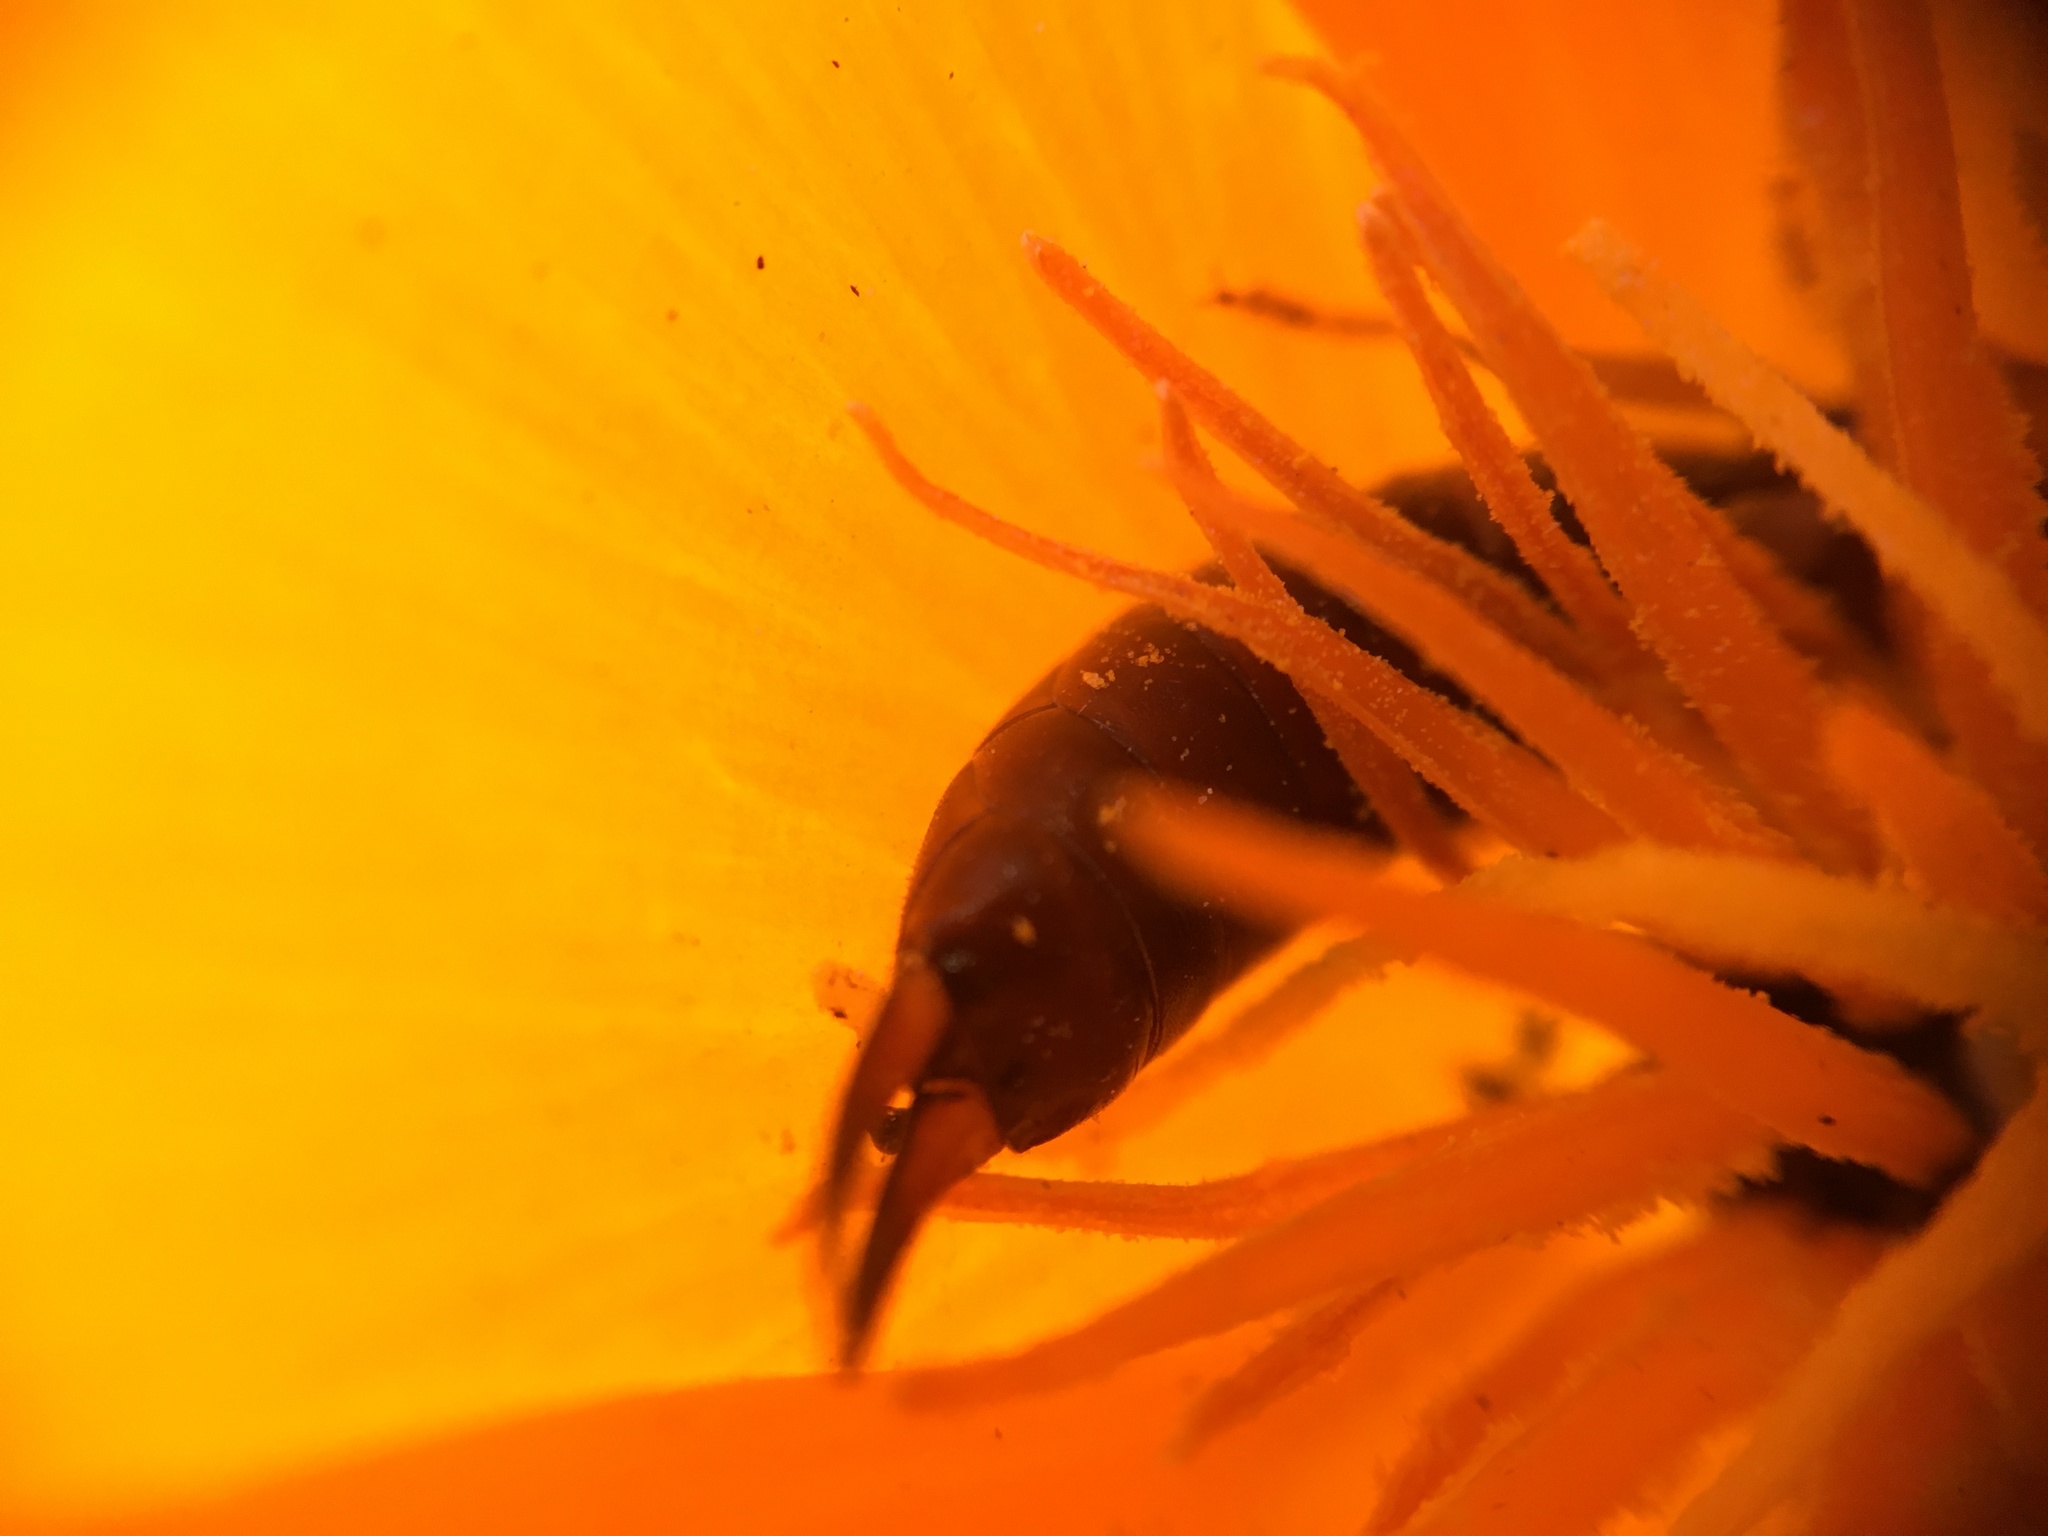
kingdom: Animalia
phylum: Arthropoda
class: Insecta
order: Dermaptera
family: Forficulidae
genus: Forficula
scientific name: Forficula
